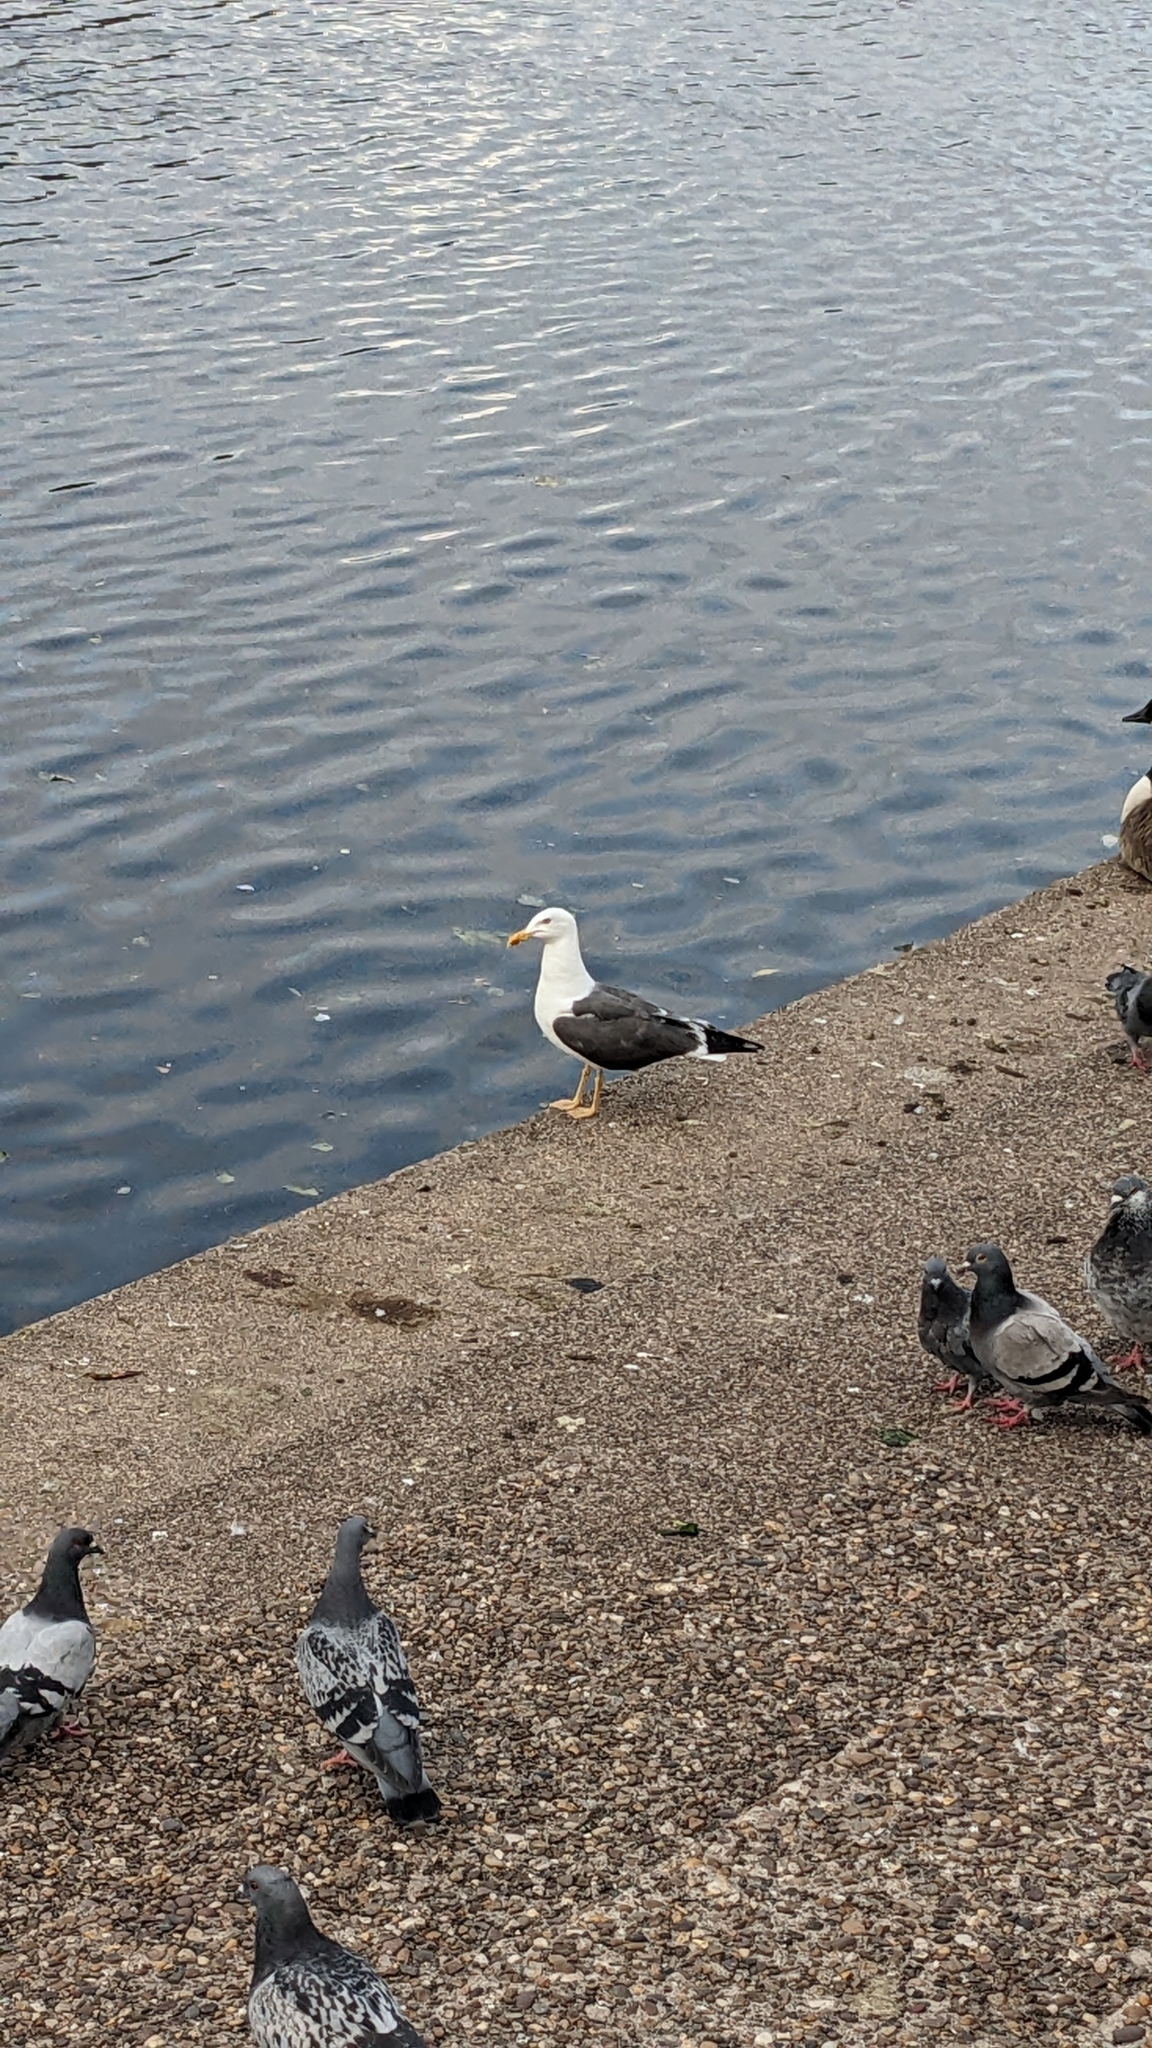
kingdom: Animalia
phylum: Chordata
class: Aves
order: Charadriiformes
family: Laridae
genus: Larus
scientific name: Larus fuscus
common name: Lesser black-backed gull
